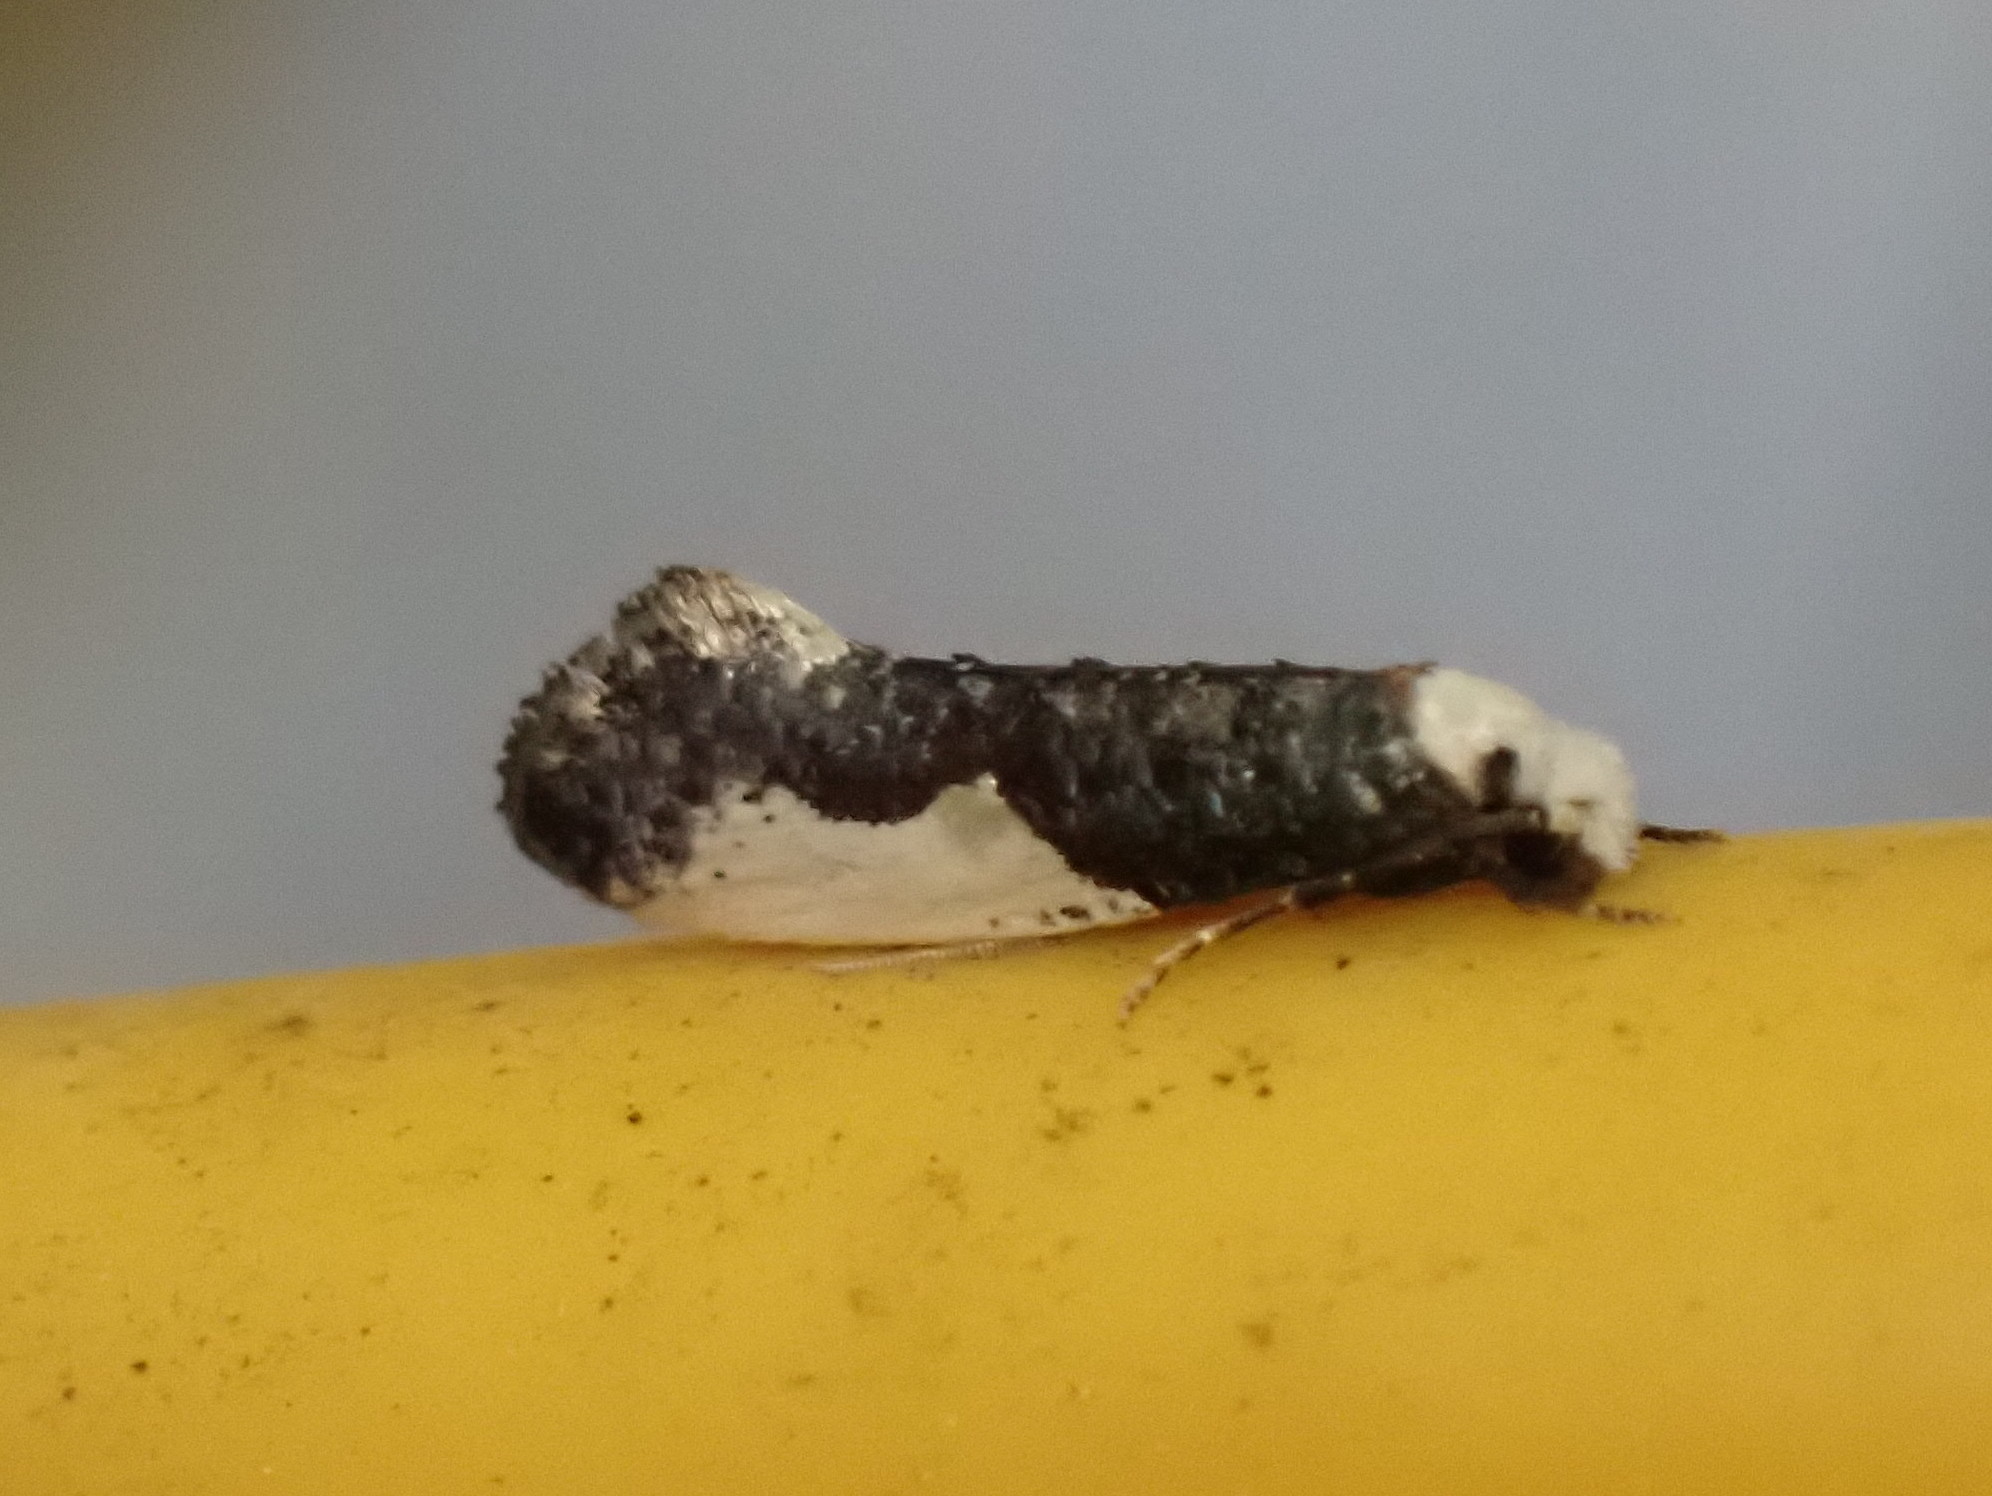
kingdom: Animalia
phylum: Arthropoda
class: Insecta
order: Lepidoptera
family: Tineidae
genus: Monopis
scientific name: Monopis monachella
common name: Moth
